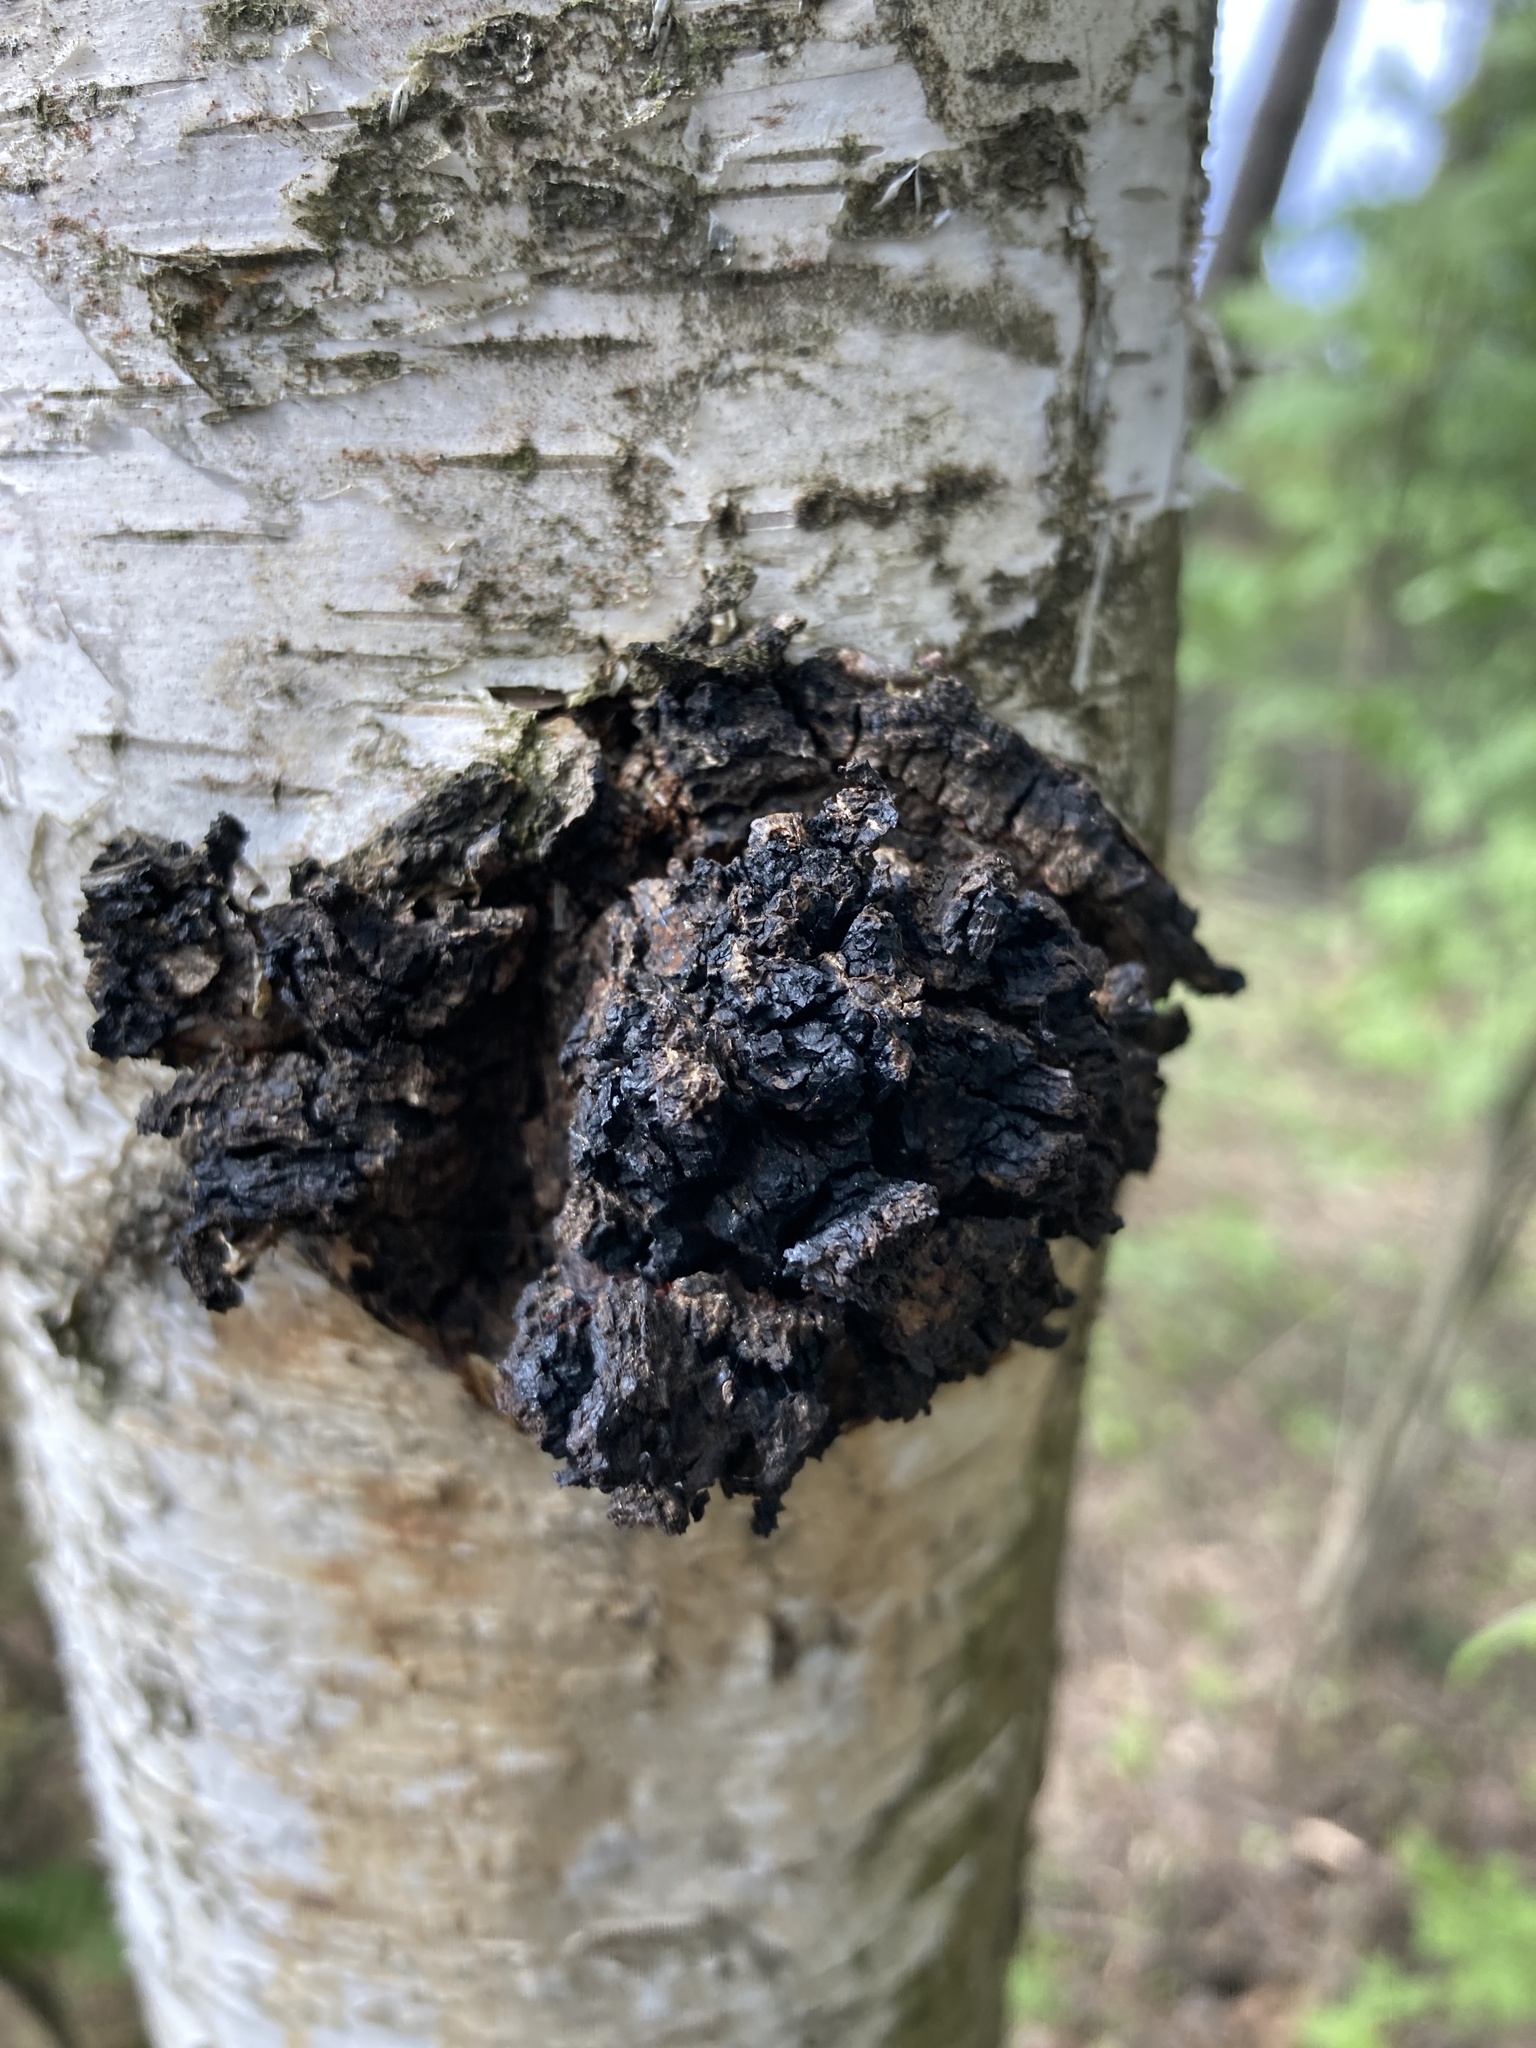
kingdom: Fungi
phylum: Basidiomycota
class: Agaricomycetes
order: Hymenochaetales
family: Hymenochaetaceae
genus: Inonotus
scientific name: Inonotus obliquus
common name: Chaga
